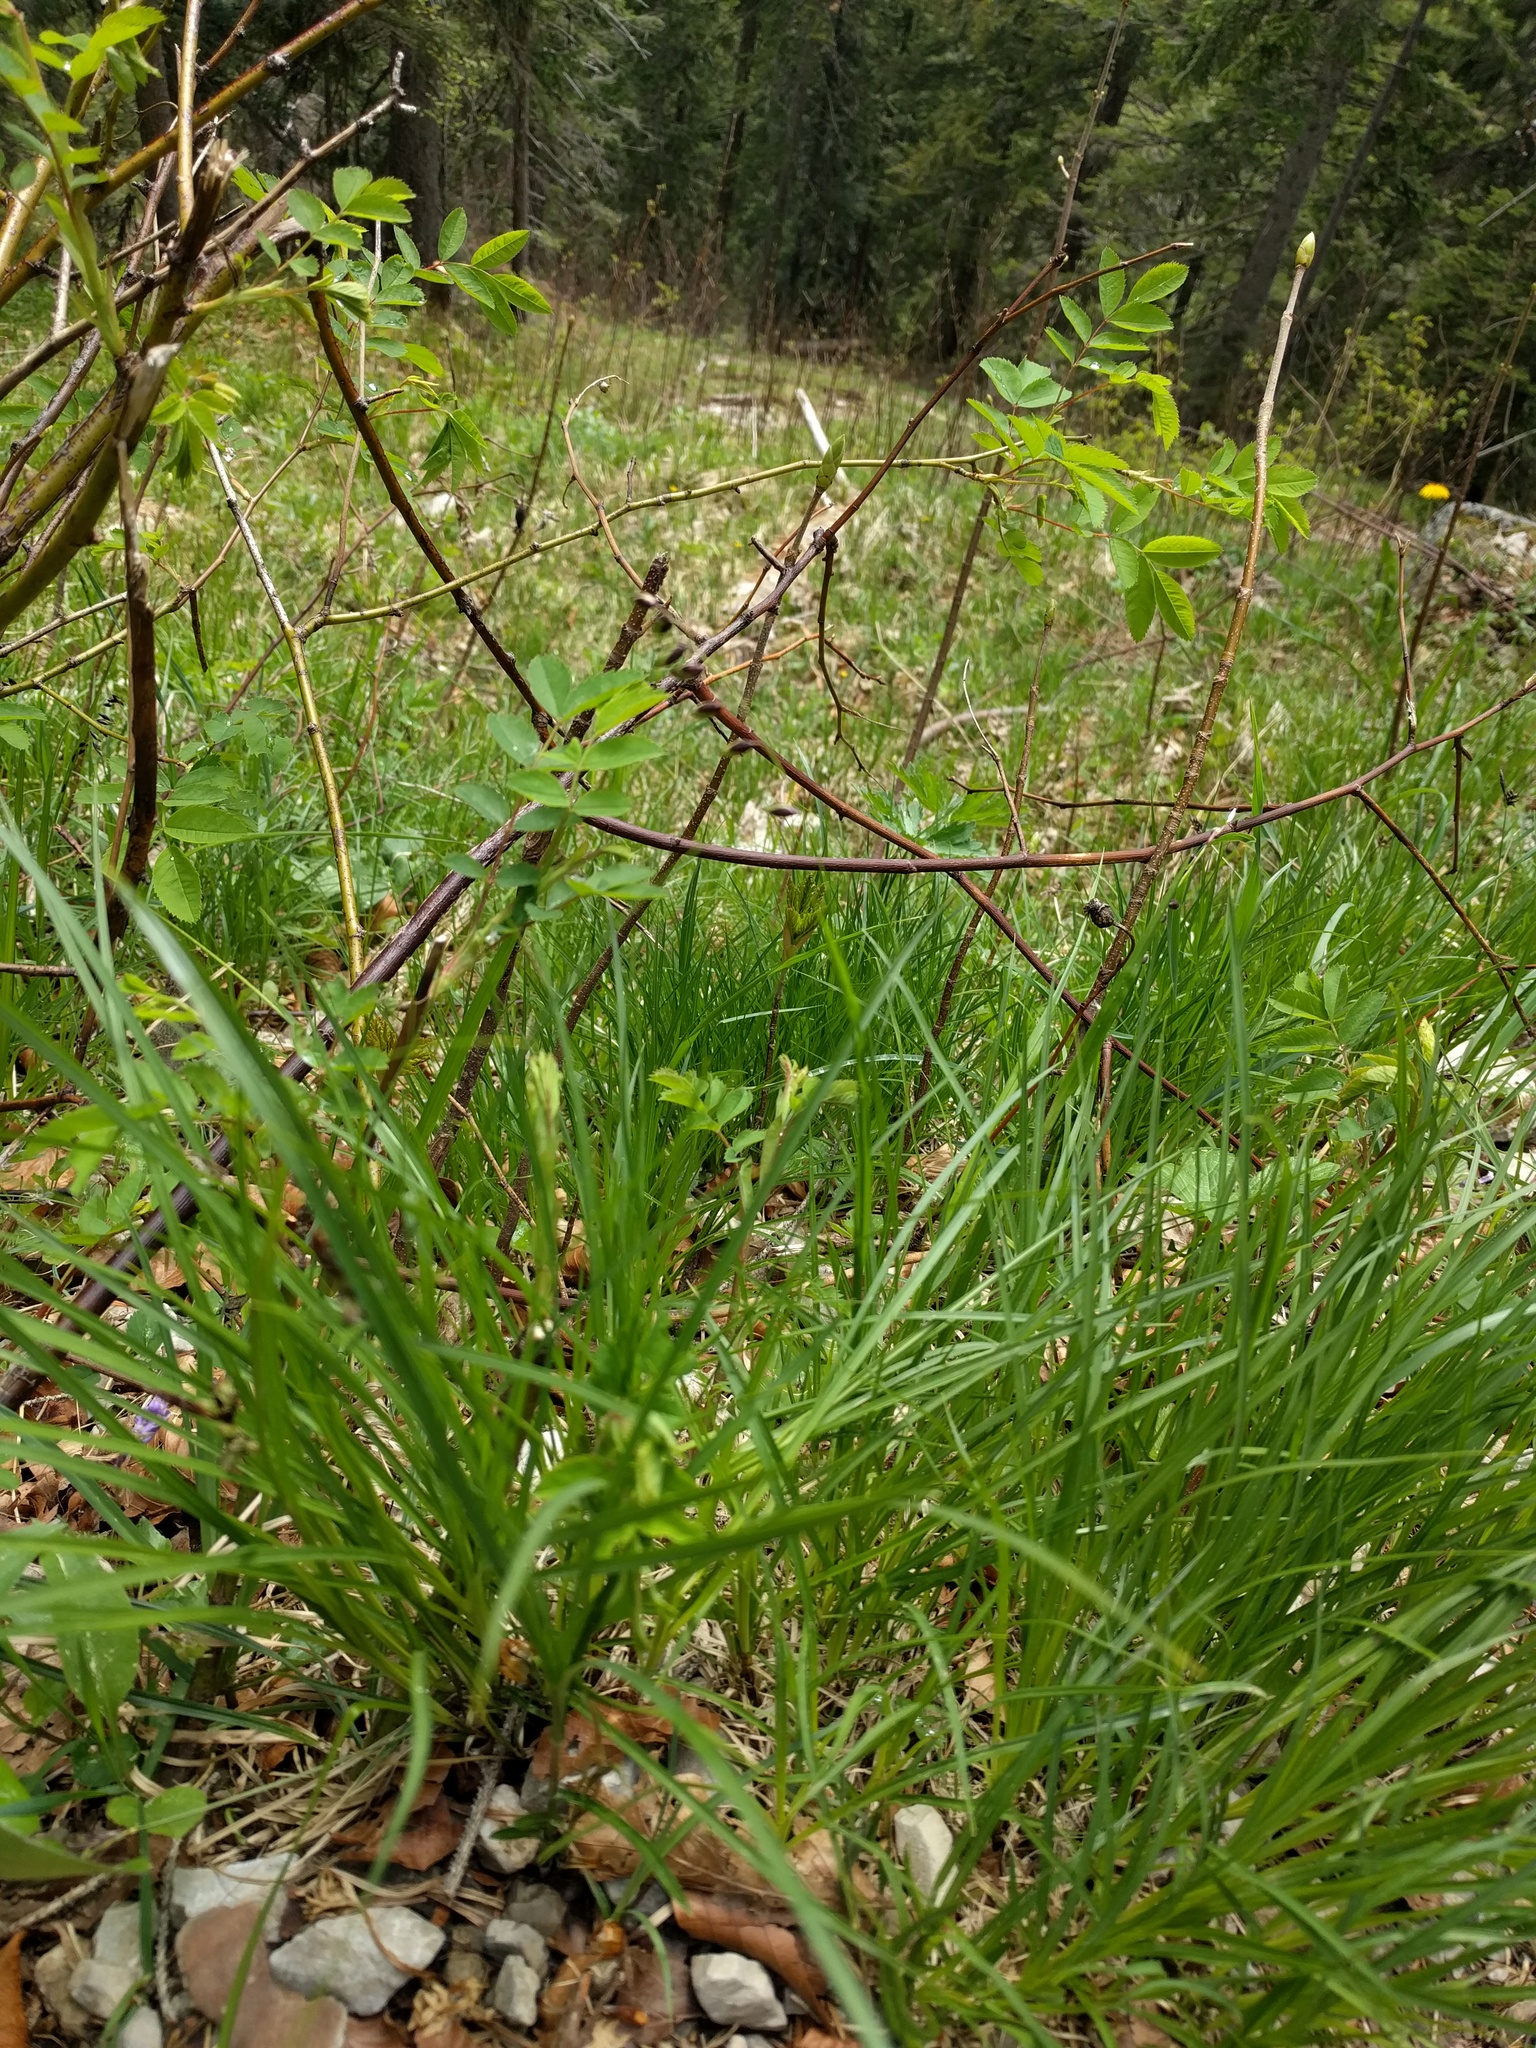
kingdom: Plantae
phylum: Tracheophyta
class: Liliopsida
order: Poales
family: Poaceae
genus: Melica
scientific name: Melica nutans
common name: Mountain melick
